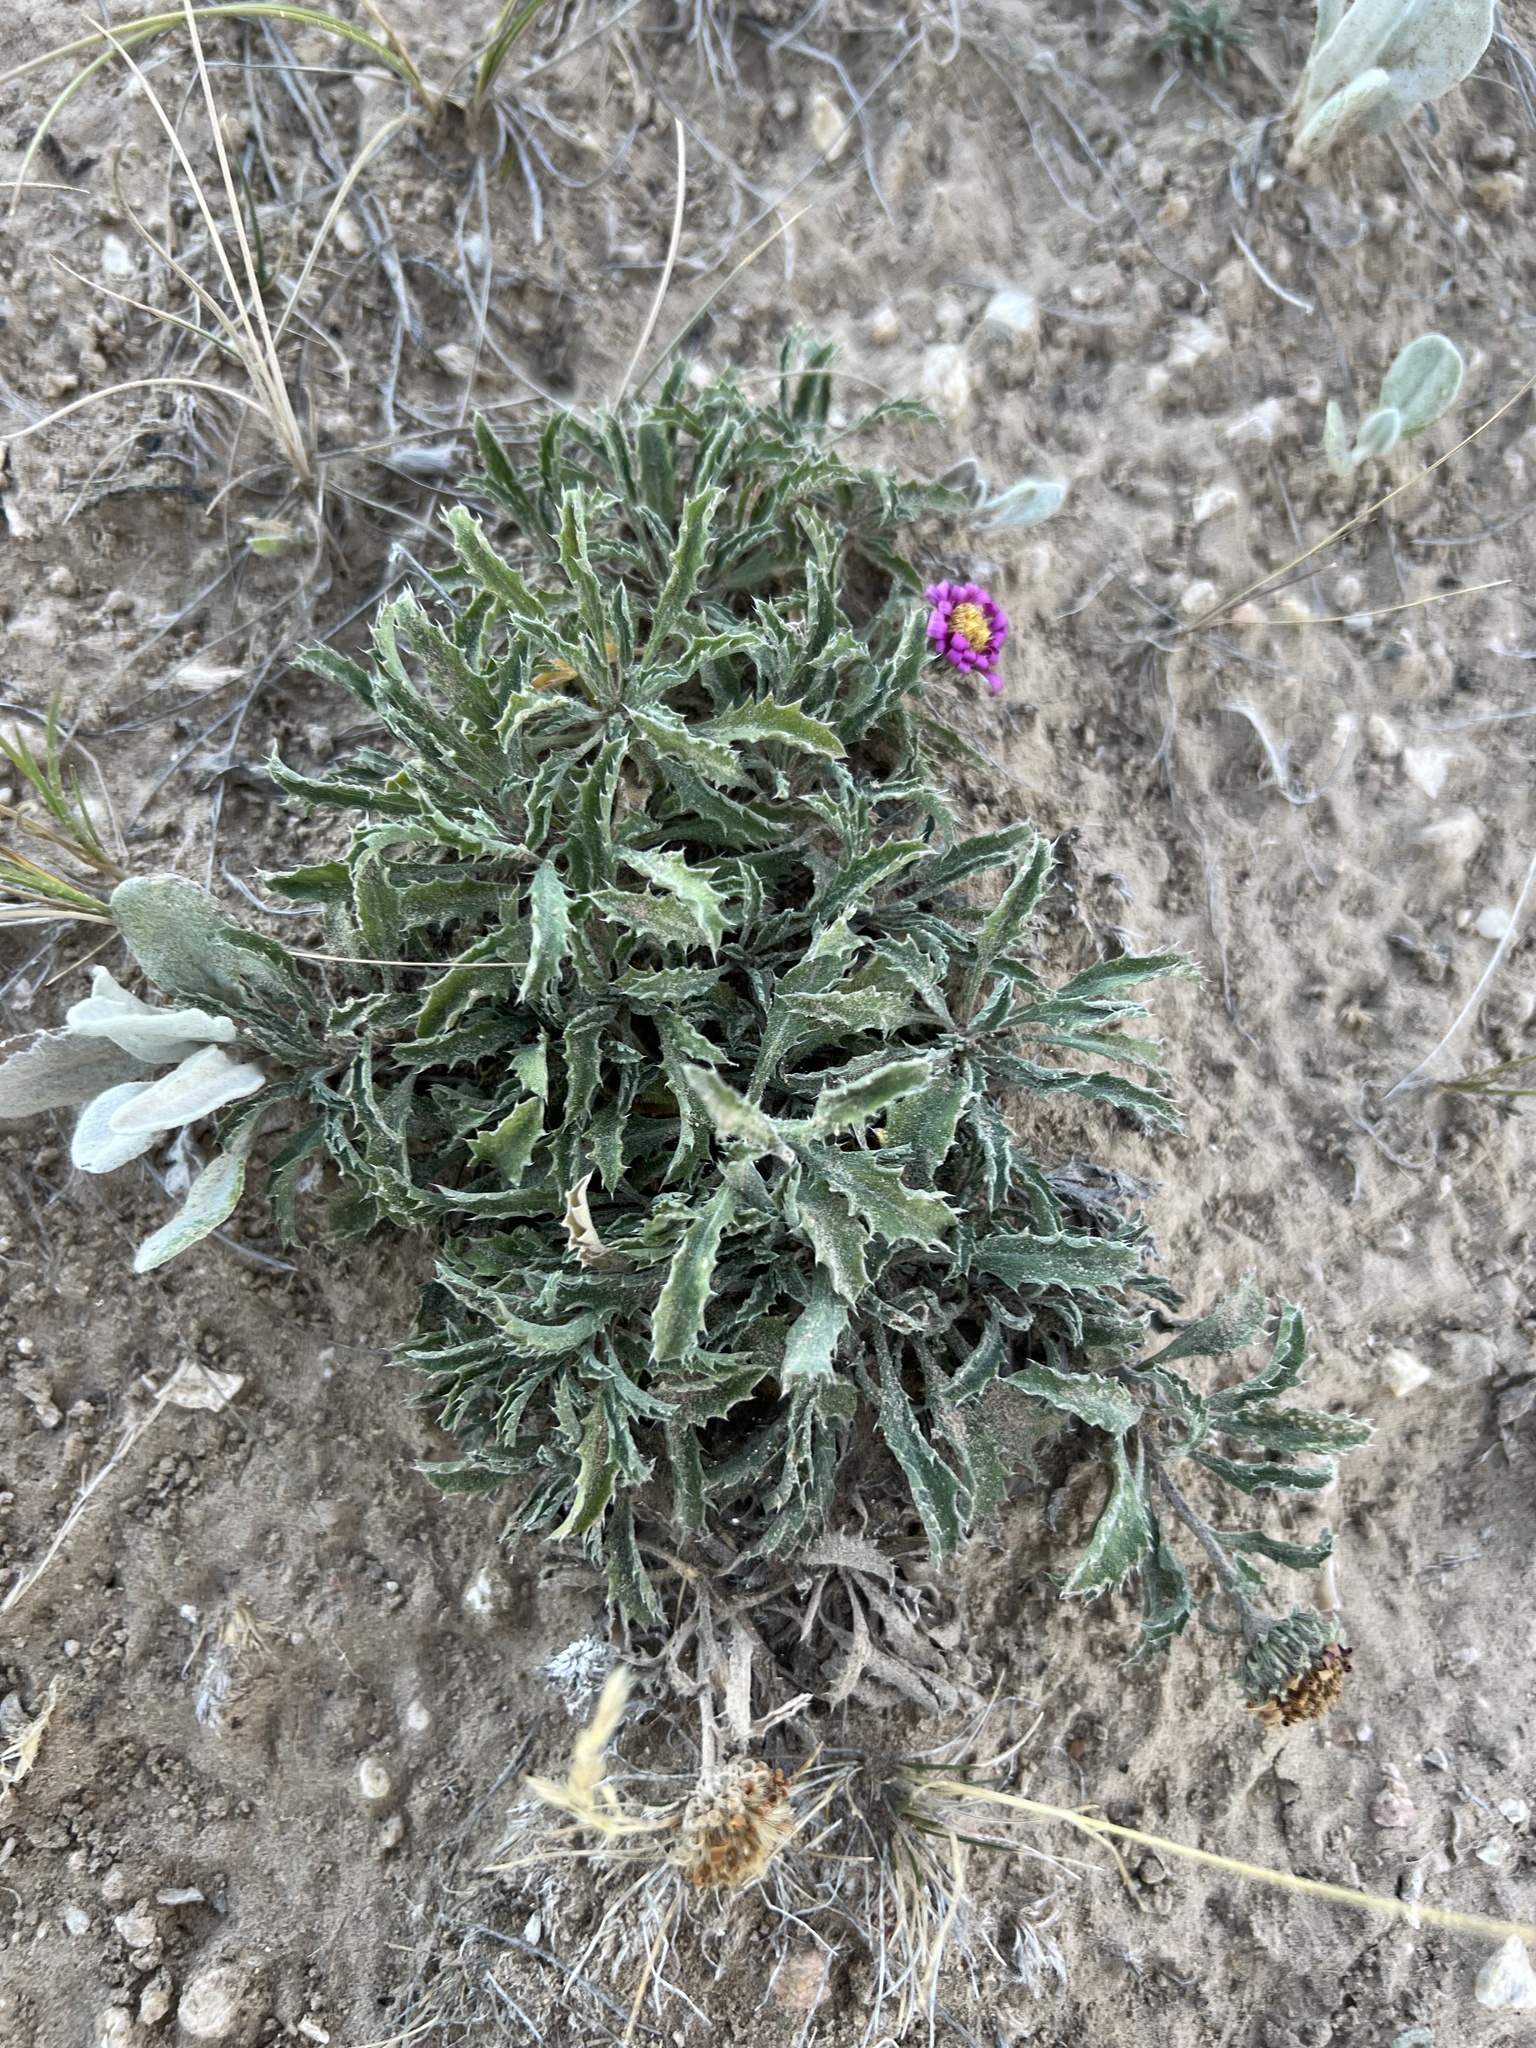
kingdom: Plantae
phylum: Tracheophyta
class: Magnoliopsida
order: Asterales
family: Asteraceae
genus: Xanthisma
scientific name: Xanthisma coloradoense
